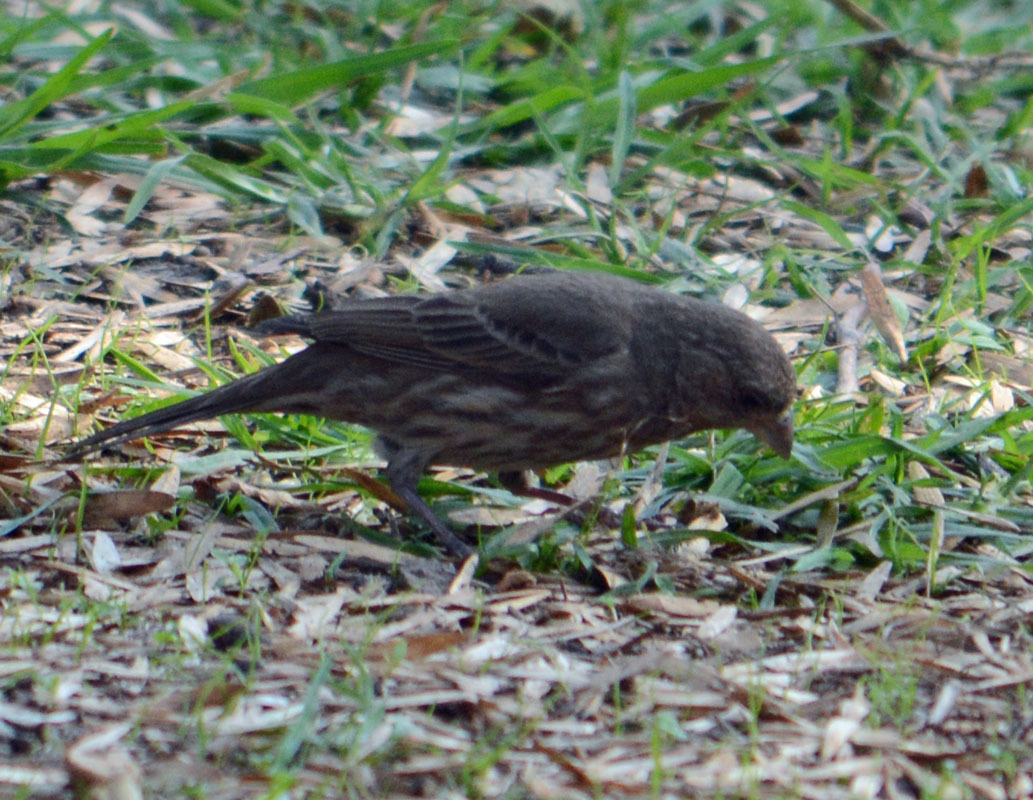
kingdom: Animalia
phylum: Chordata
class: Aves
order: Passeriformes
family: Fringillidae
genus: Haemorhous
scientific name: Haemorhous mexicanus
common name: House finch
